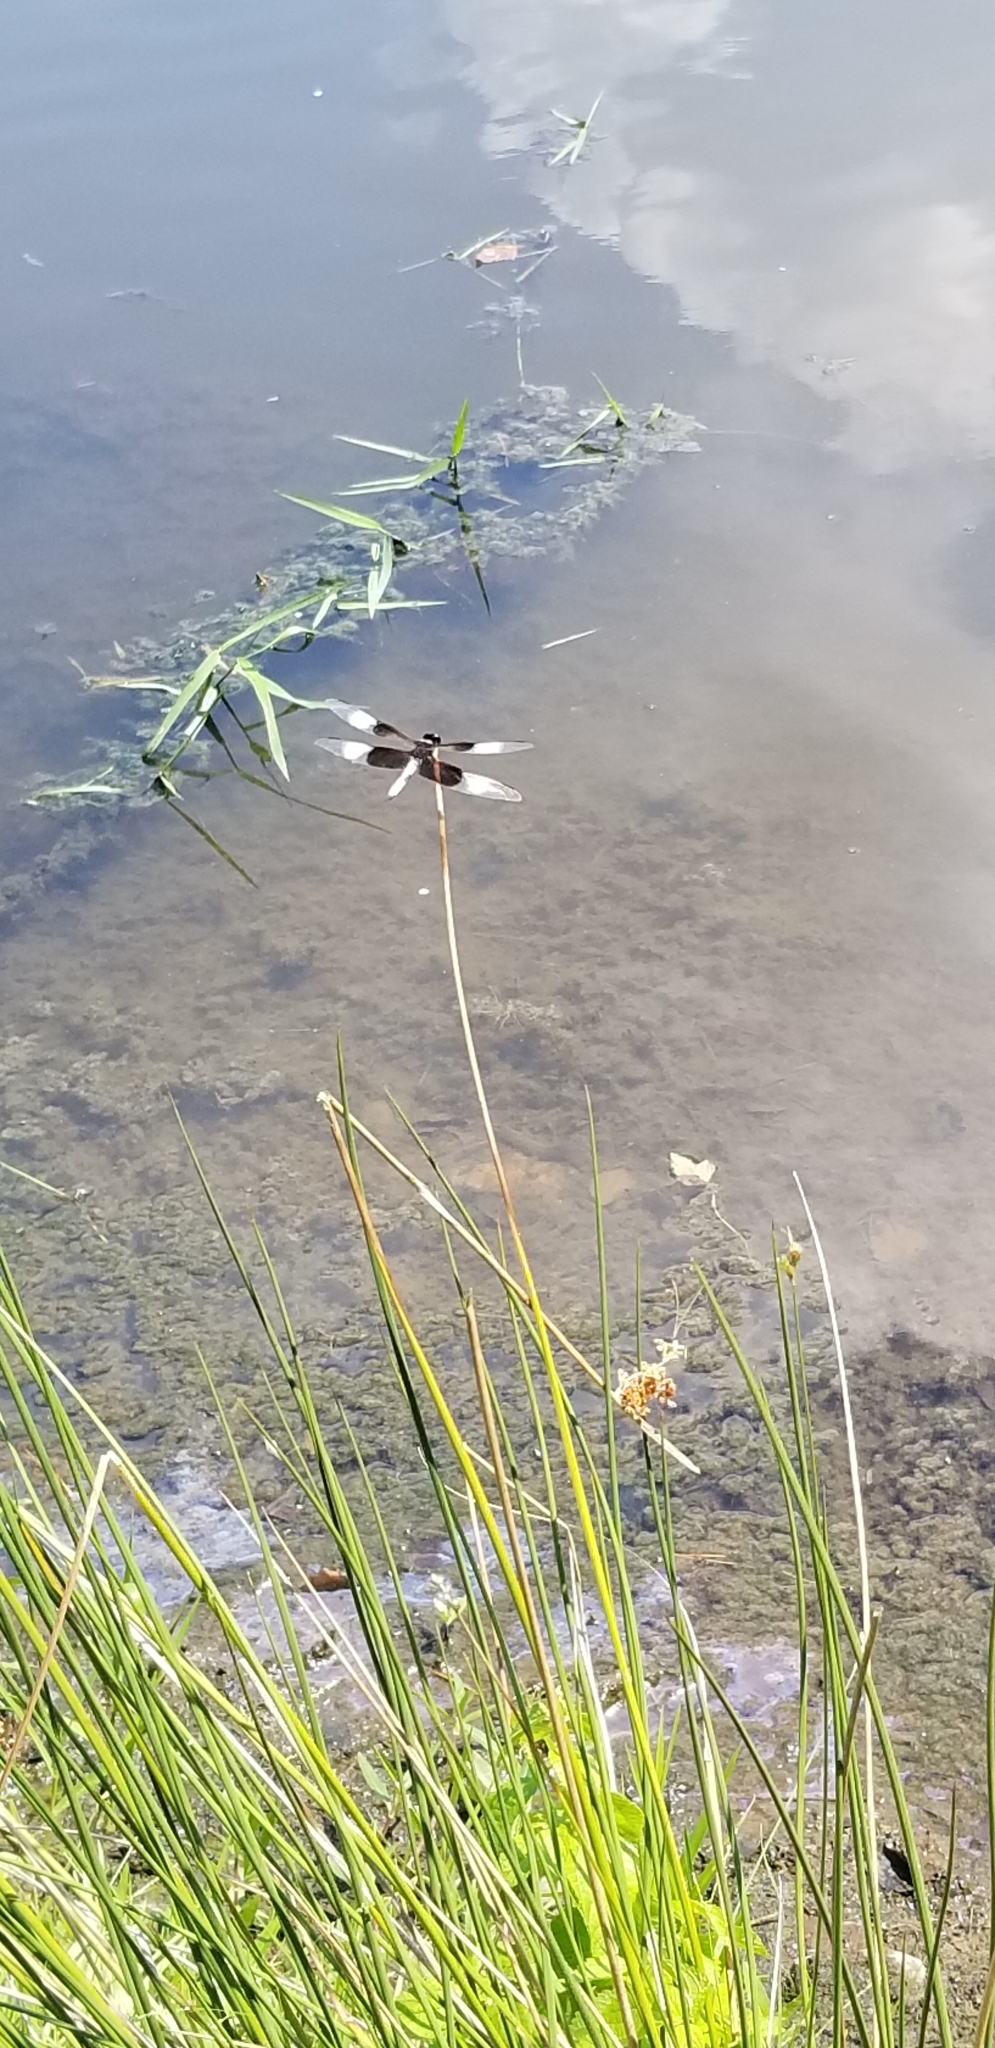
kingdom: Animalia
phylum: Arthropoda
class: Insecta
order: Odonata
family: Libellulidae
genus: Libellula
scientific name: Libellula luctuosa
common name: Widow skimmer
